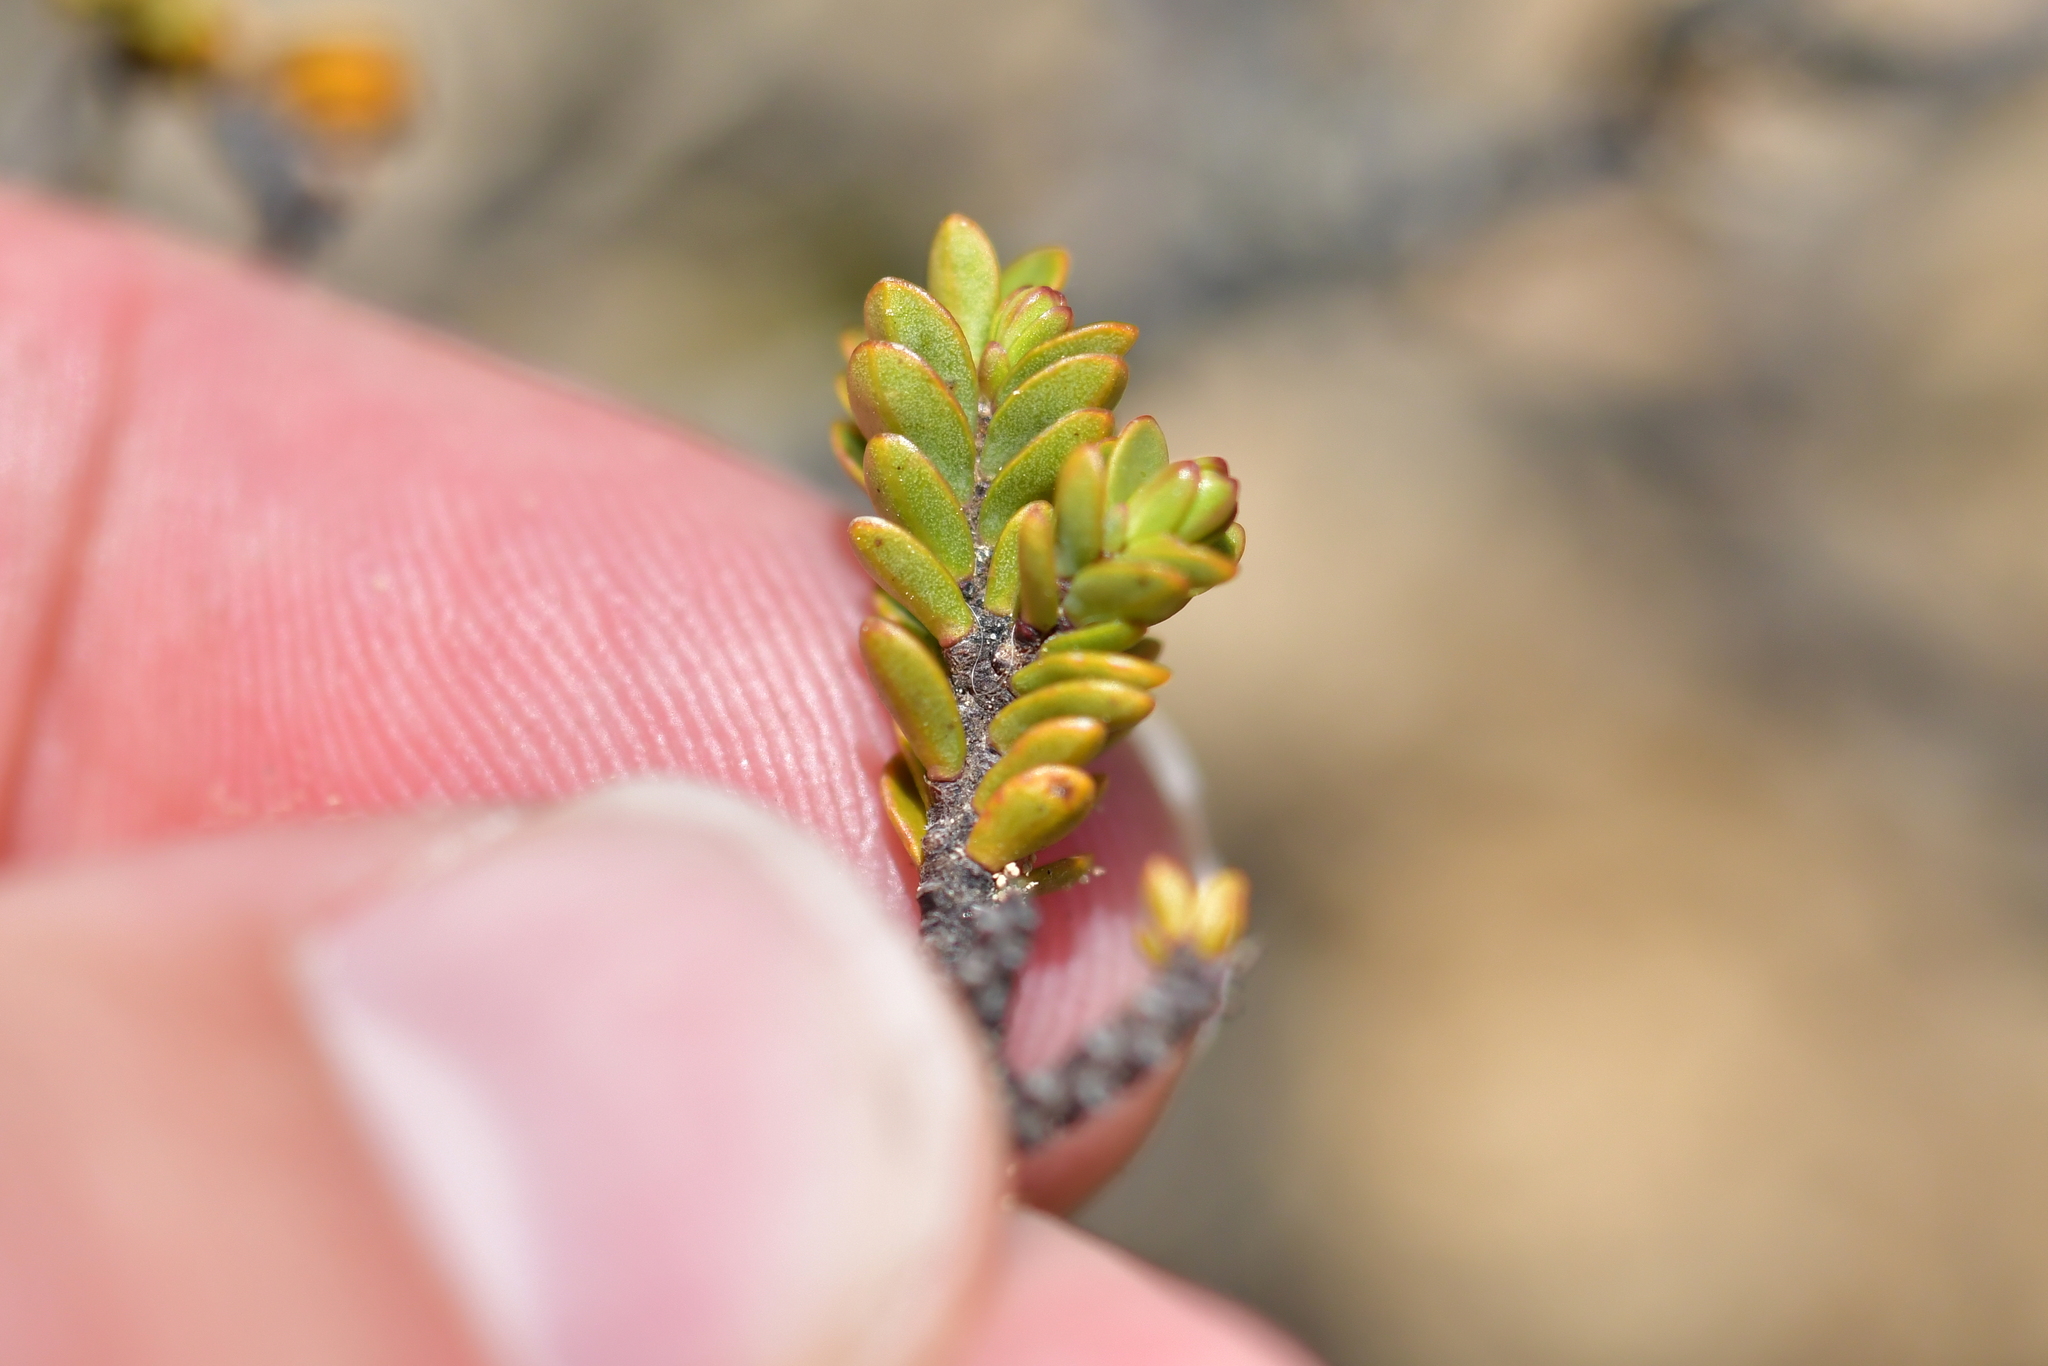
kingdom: Plantae
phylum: Tracheophyta
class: Magnoliopsida
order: Malvales
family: Thymelaeaceae
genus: Pimelea
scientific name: Pimelea traversii
